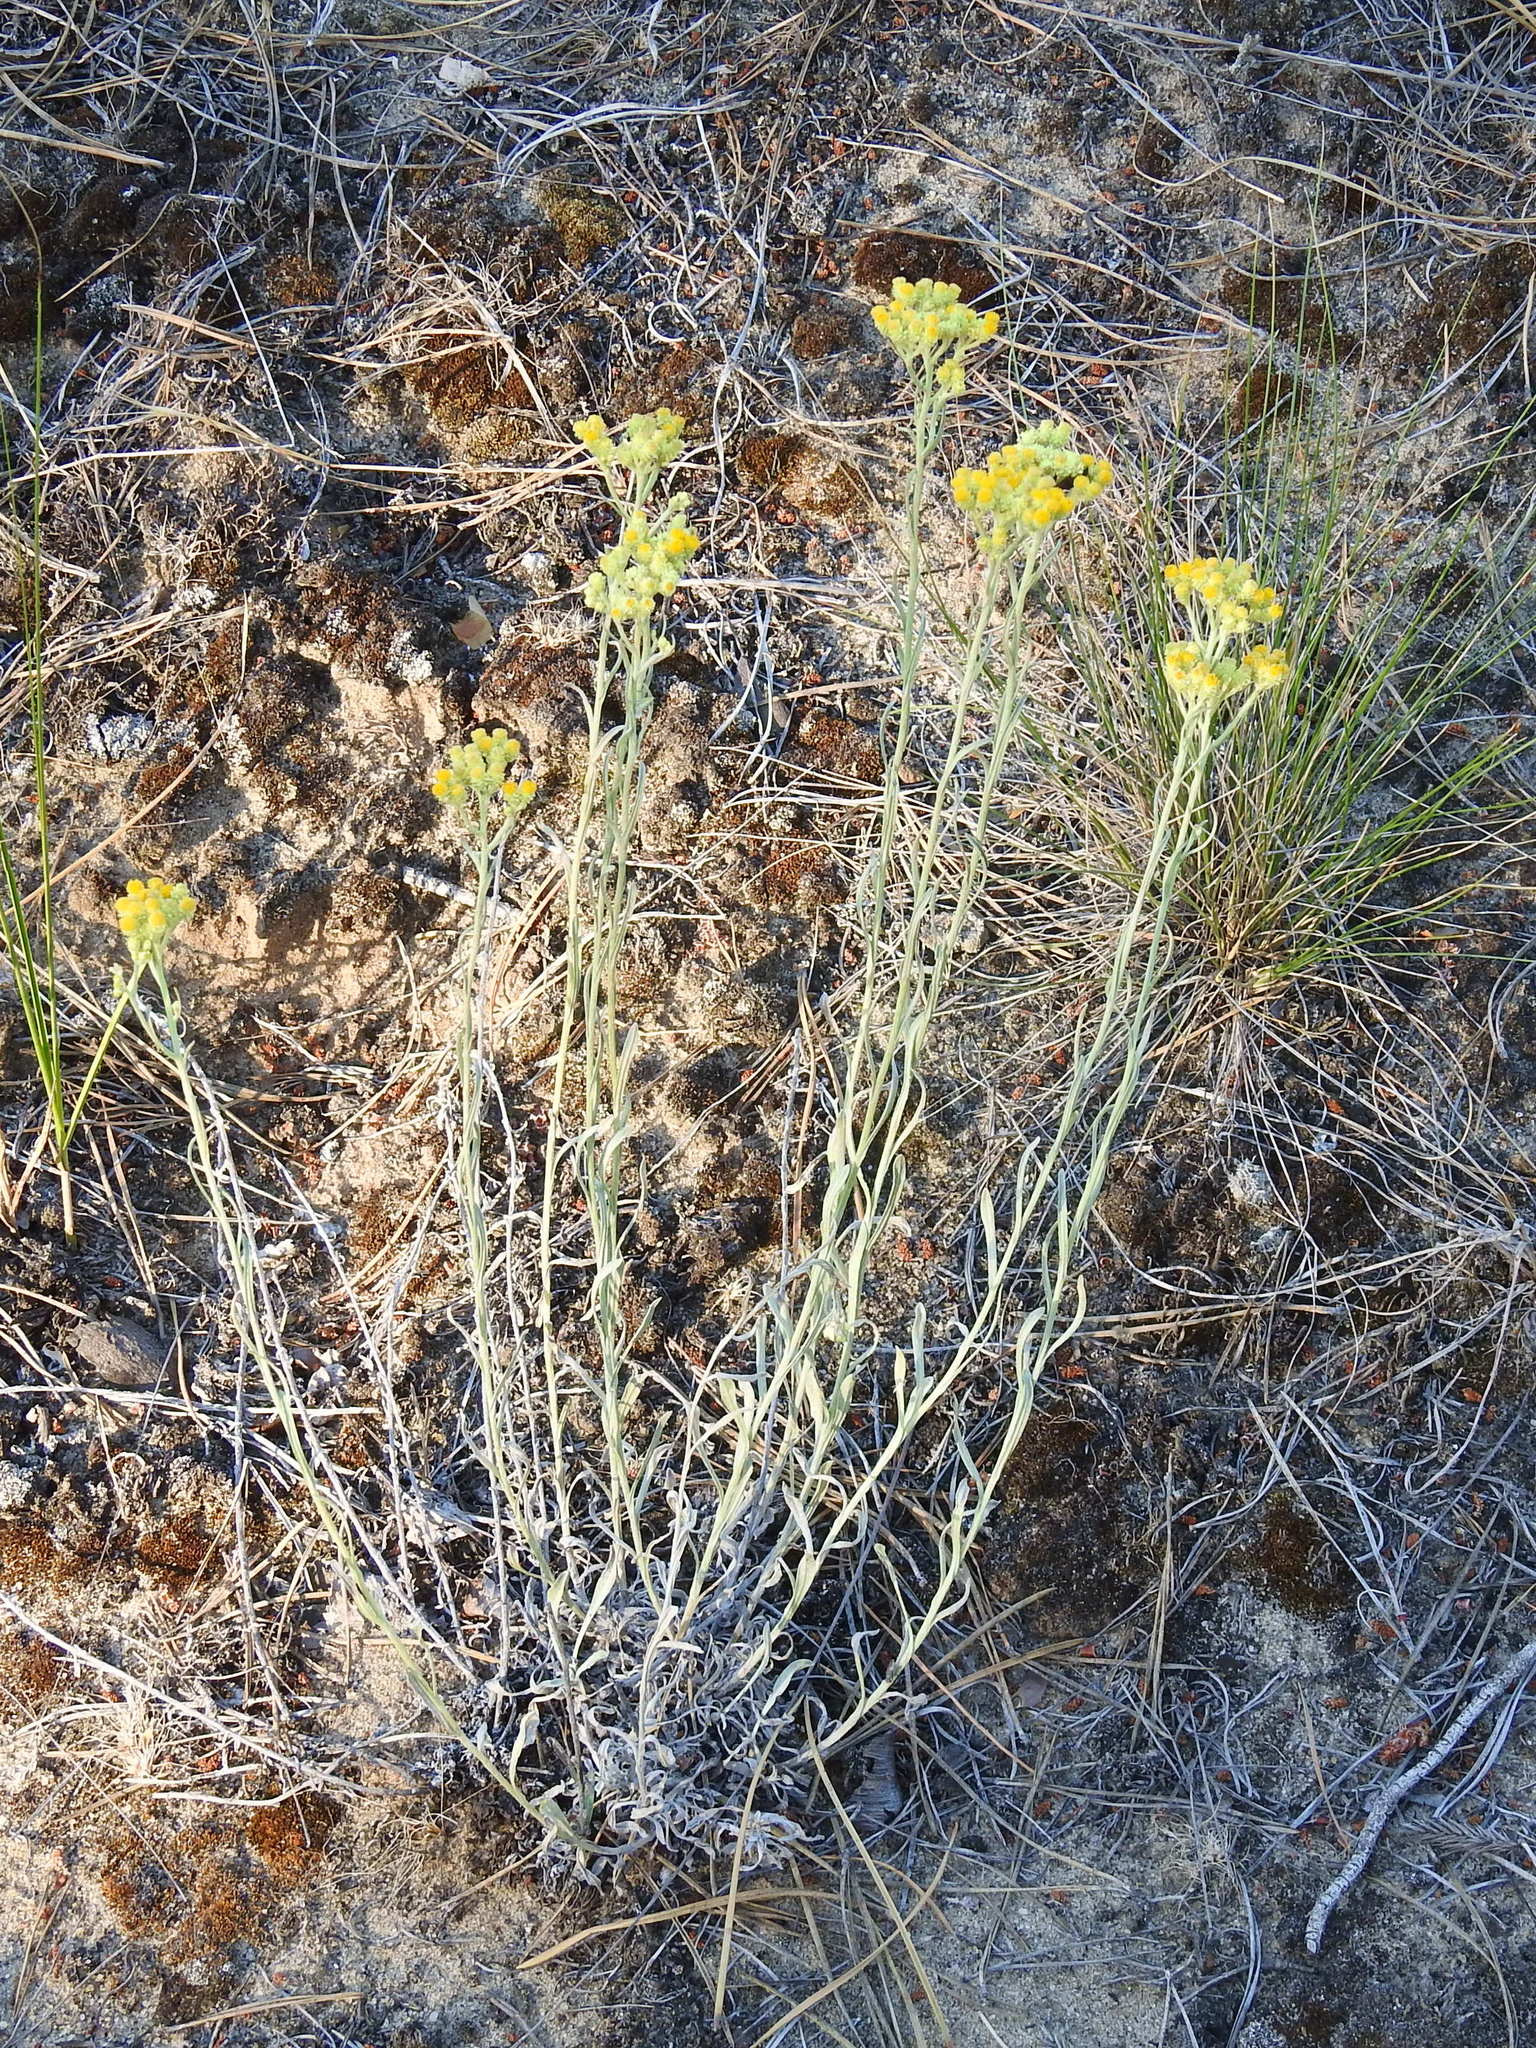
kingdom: Plantae
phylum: Tracheophyta
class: Magnoliopsida
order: Asterales
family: Asteraceae
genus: Helichrysum
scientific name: Helichrysum arenarium
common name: Strawflower
